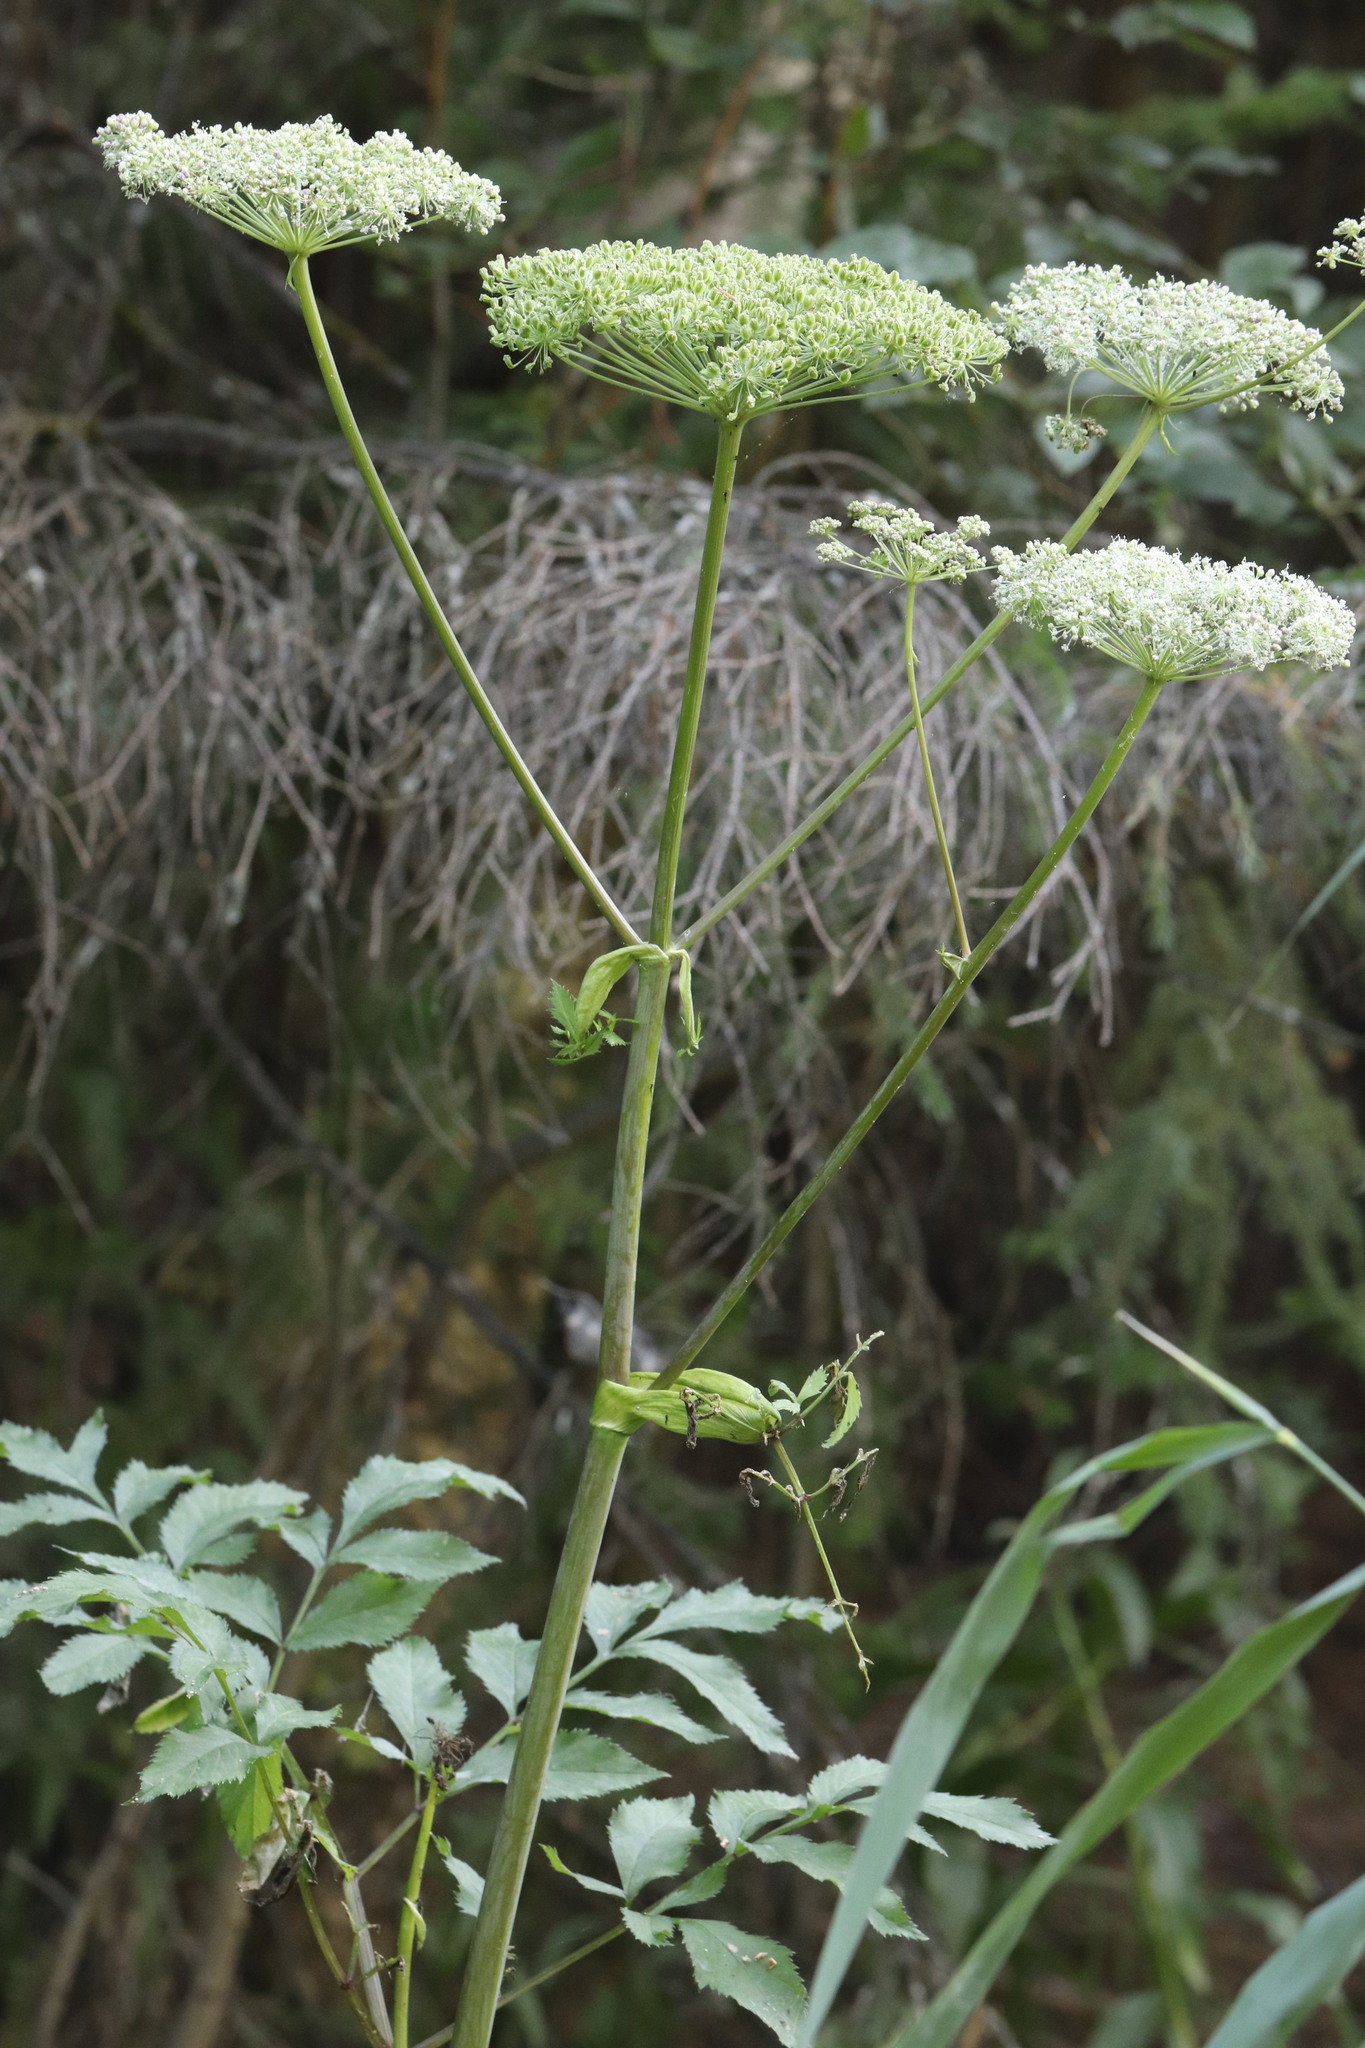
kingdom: Plantae
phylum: Tracheophyta
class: Magnoliopsida
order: Apiales
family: Apiaceae
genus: Angelica
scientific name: Angelica sylvestris
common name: Wild angelica
